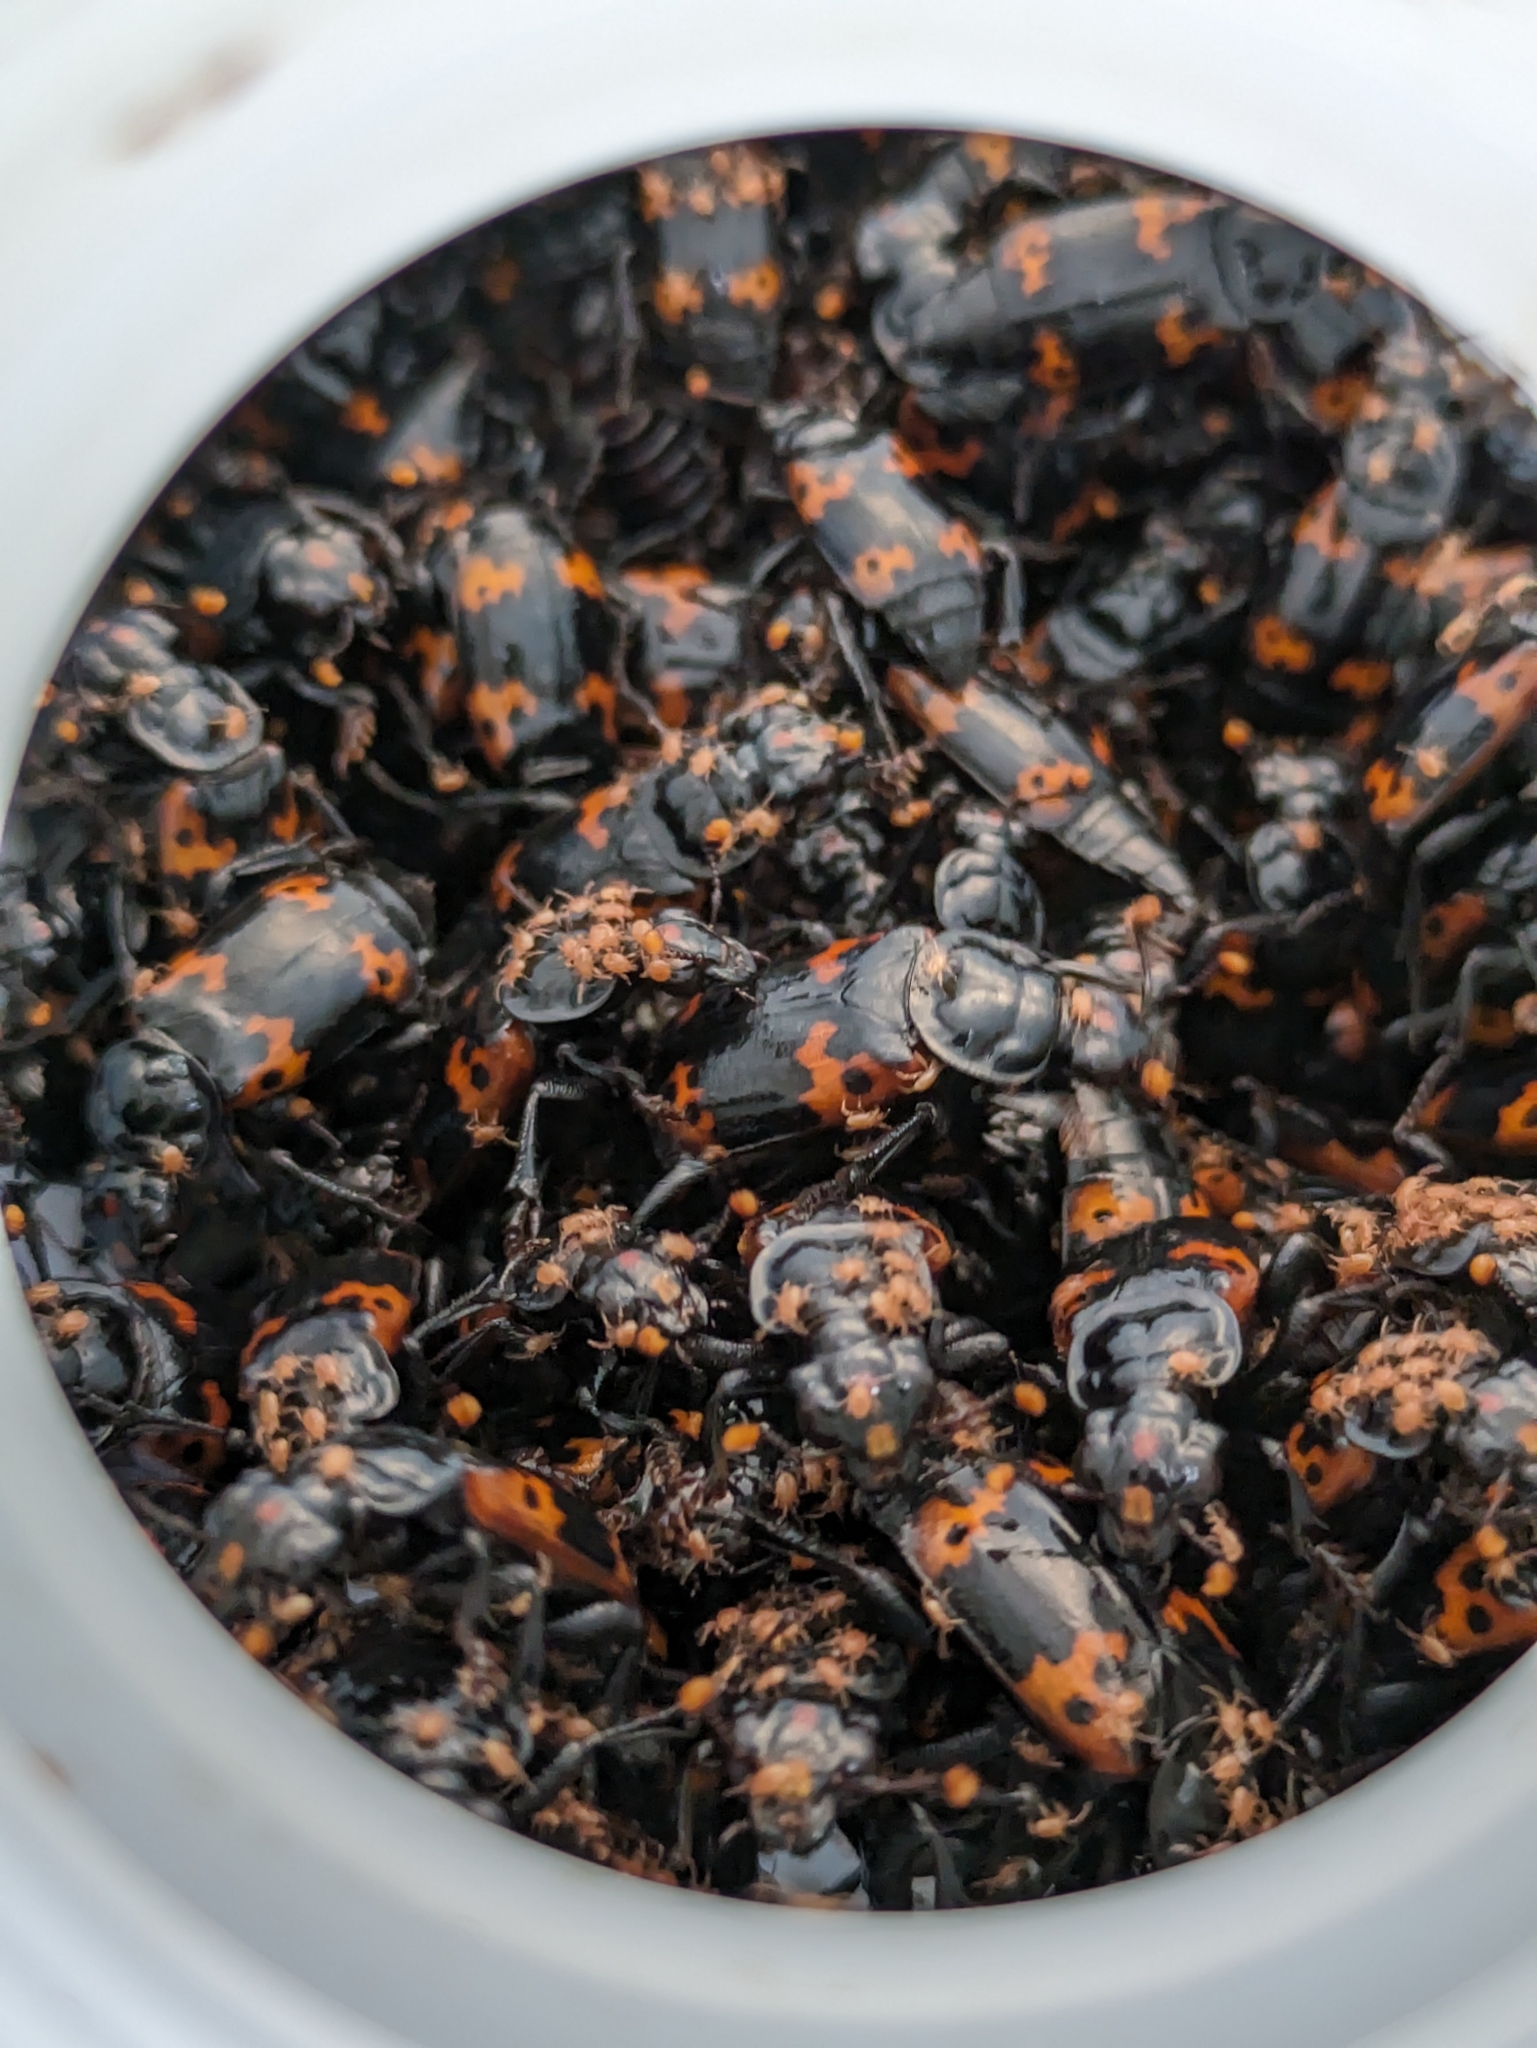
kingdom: Animalia
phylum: Arthropoda
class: Insecta
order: Coleoptera
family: Staphylinidae
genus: Nicrophorus
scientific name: Nicrophorus nepalensis
